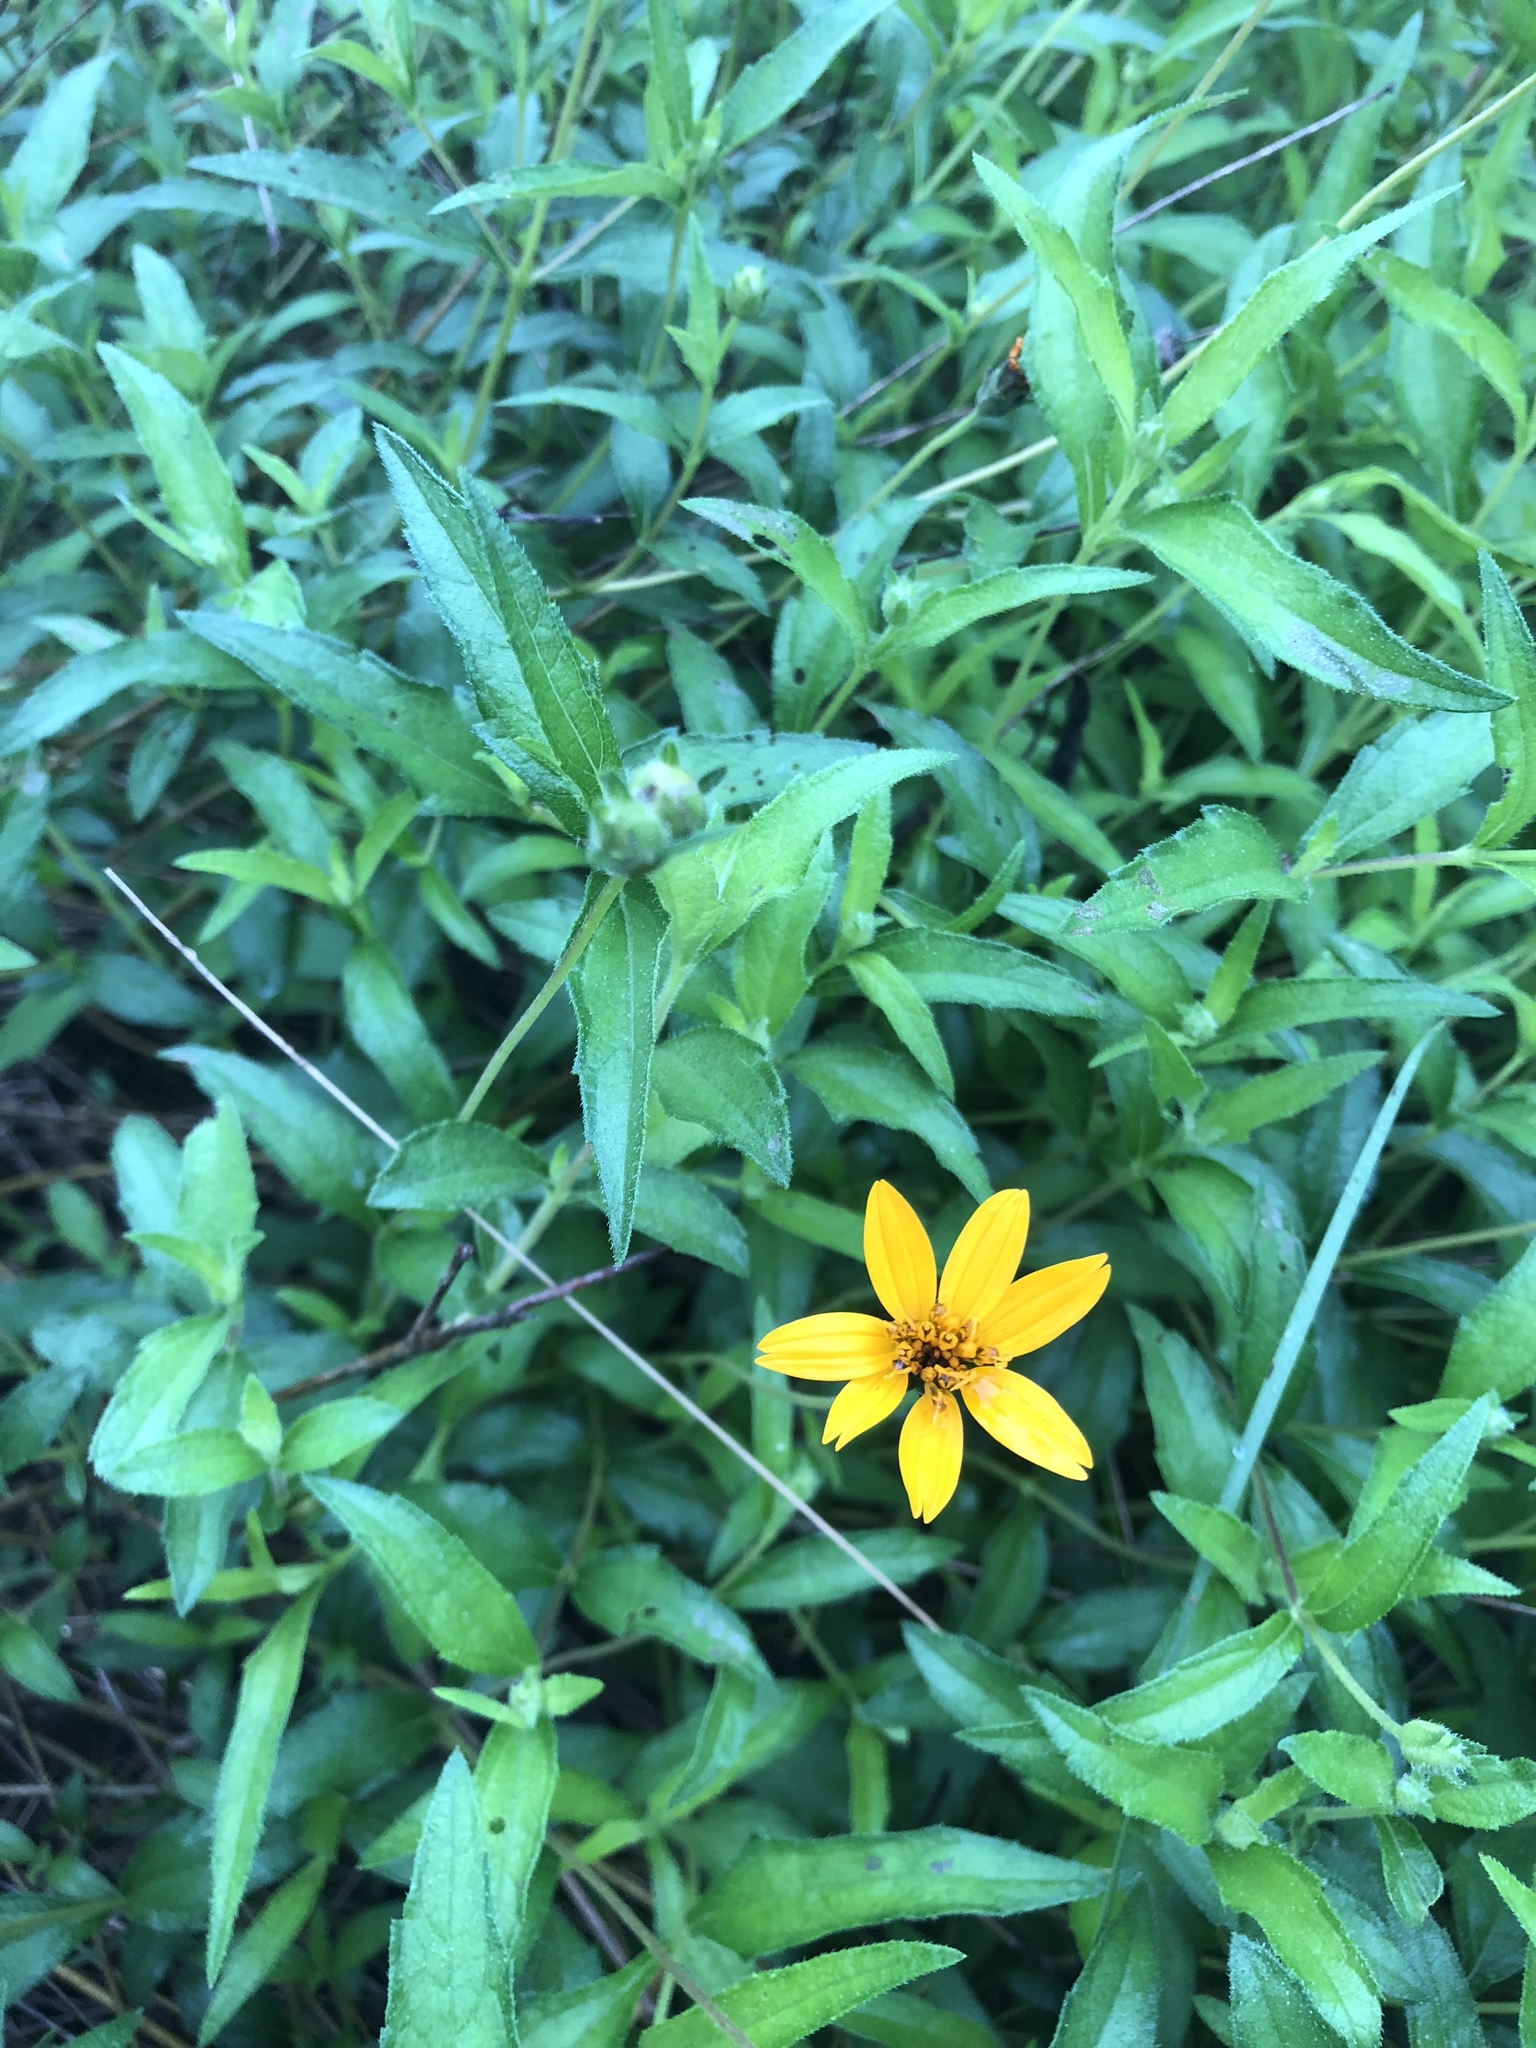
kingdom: Plantae
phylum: Tracheophyta
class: Magnoliopsida
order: Asterales
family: Asteraceae
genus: Wedelia
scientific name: Wedelia acapulcensis
